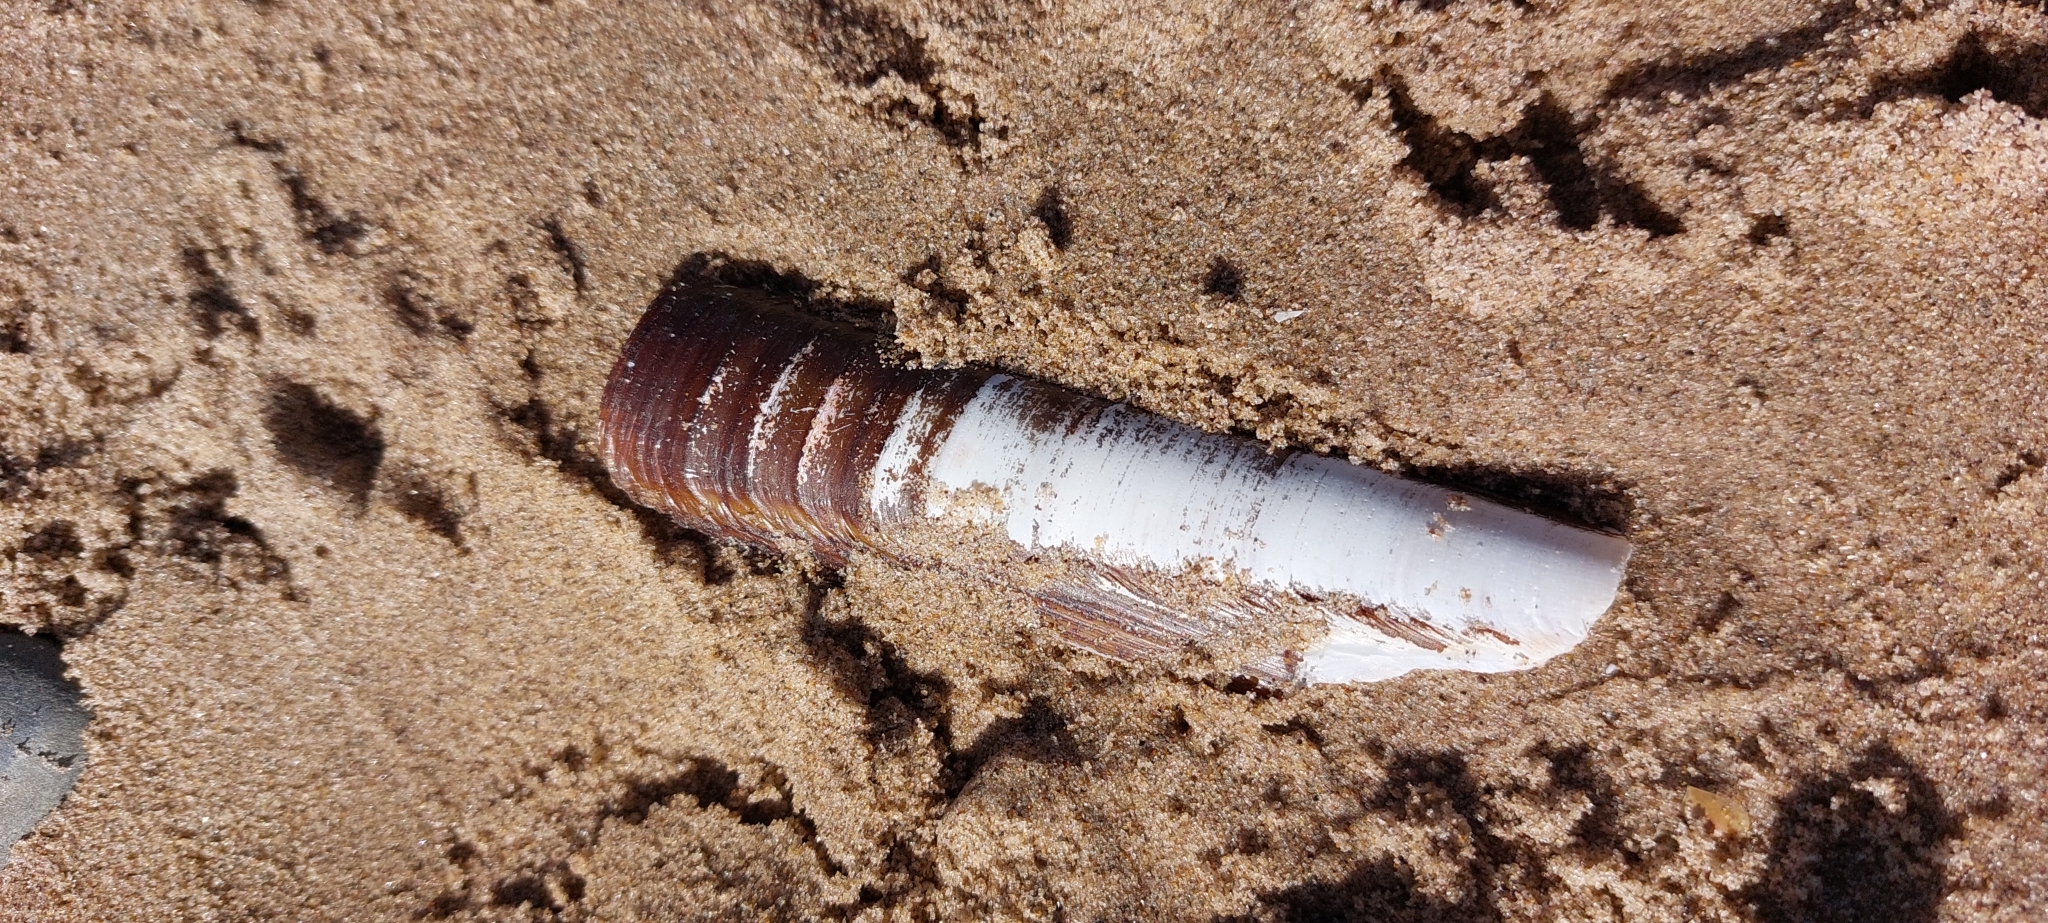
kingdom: Animalia
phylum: Mollusca
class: Bivalvia
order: Adapedonta
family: Pharidae
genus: Ensis
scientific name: Ensis siliqua
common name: Pod razor shell
